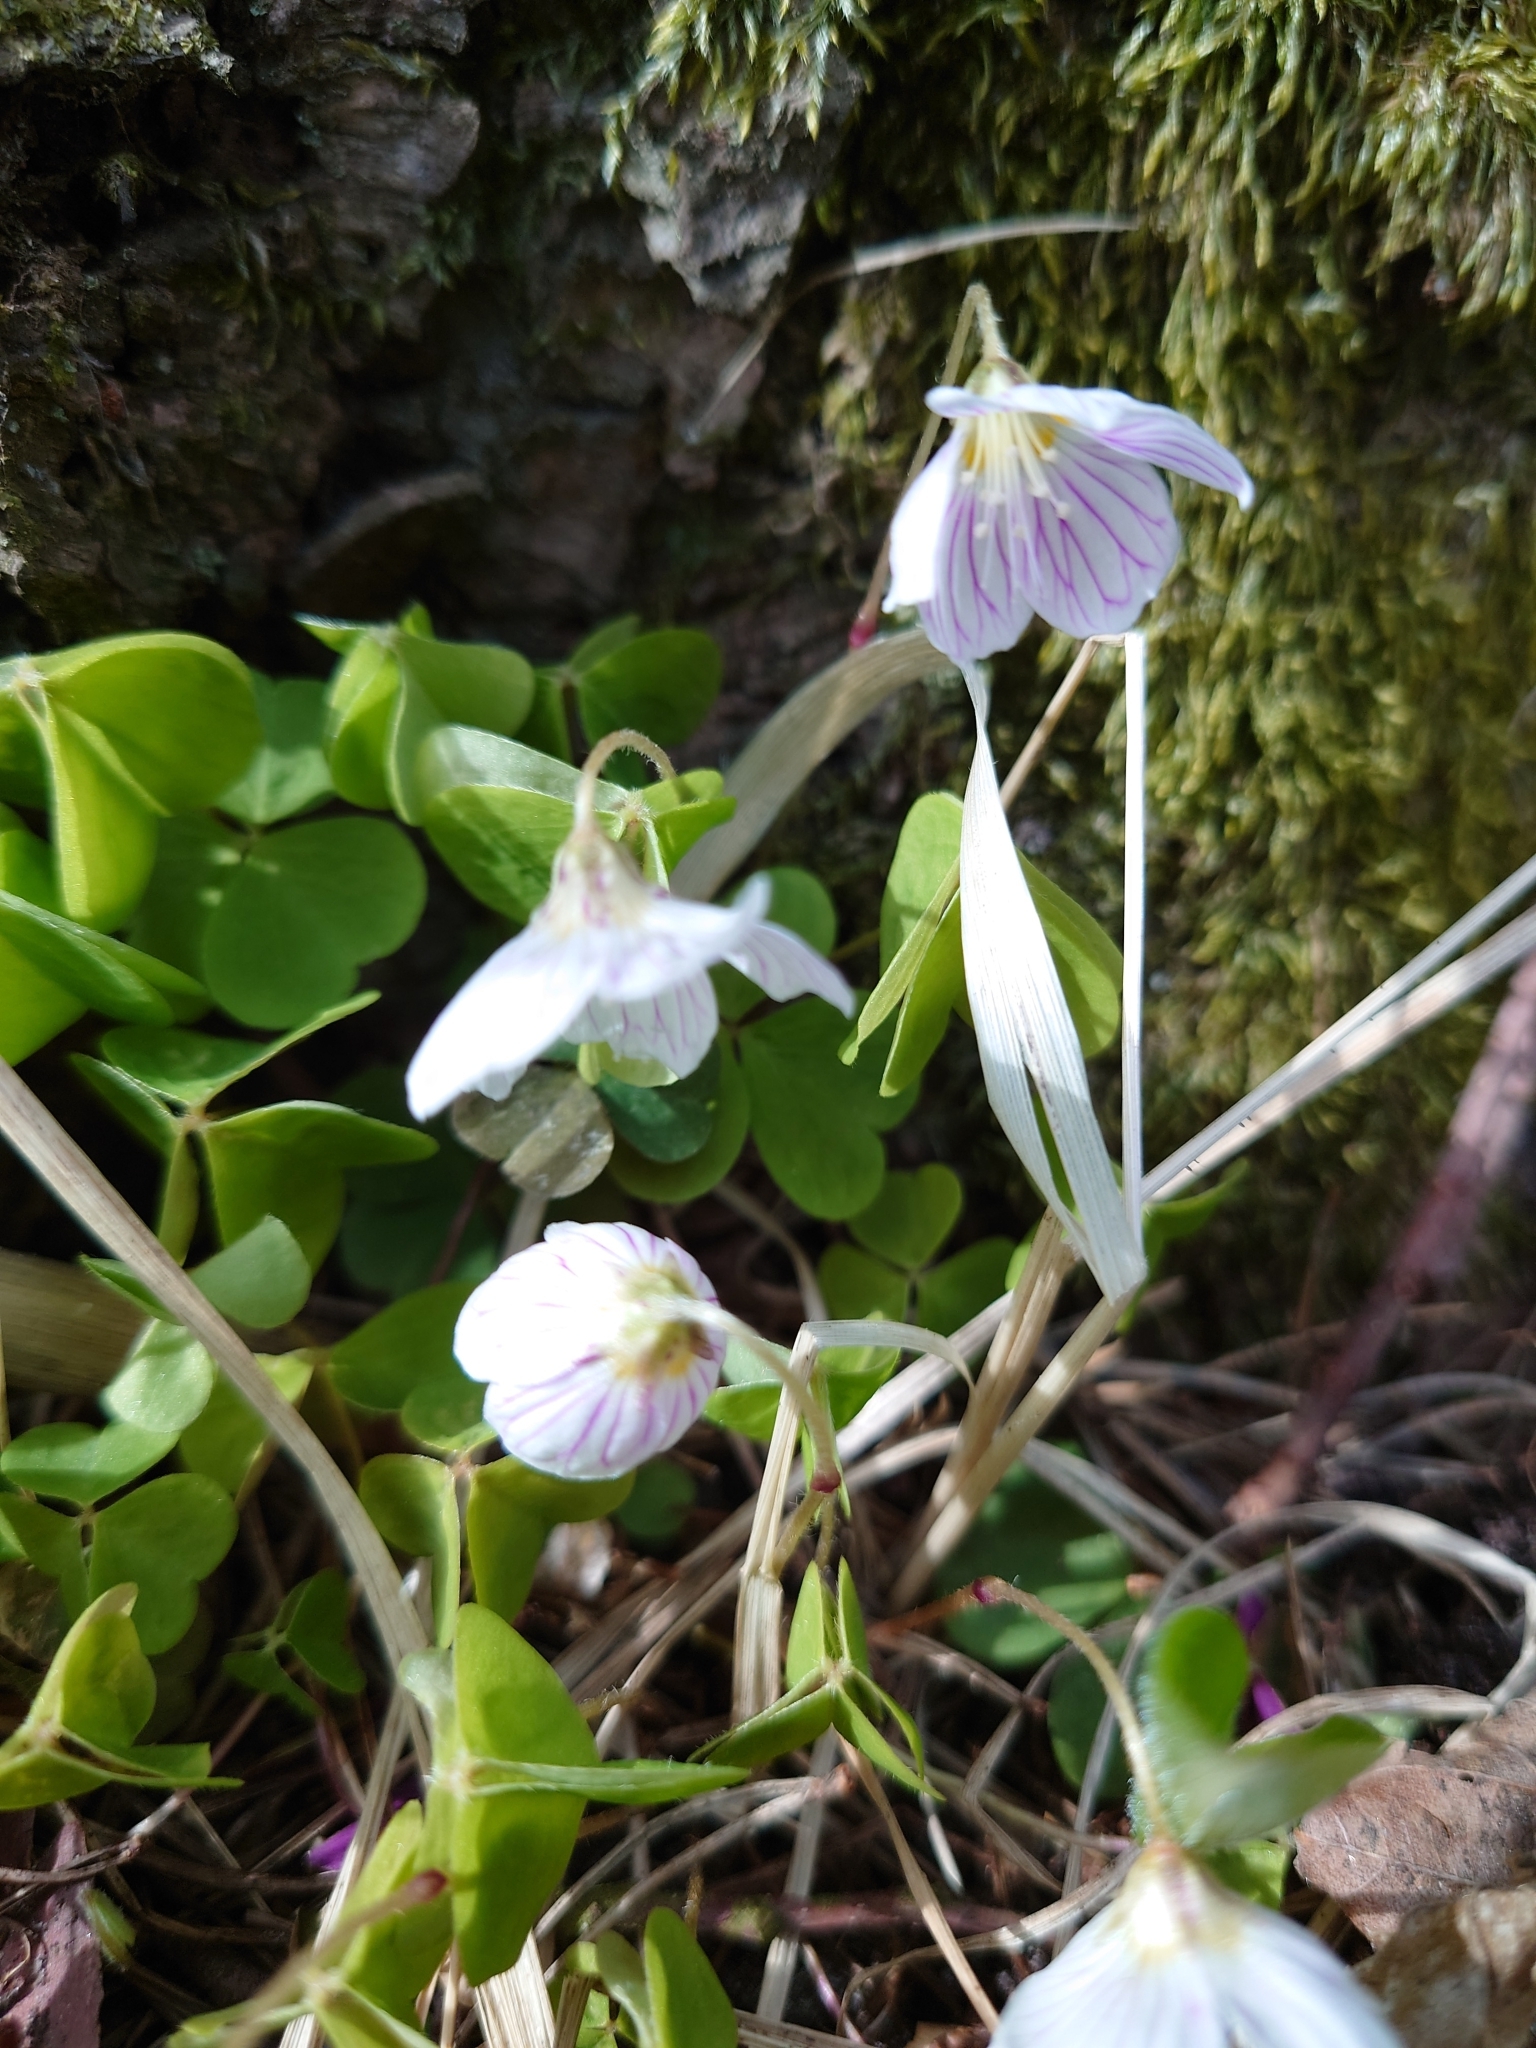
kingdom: Plantae
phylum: Tracheophyta
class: Magnoliopsida
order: Oxalidales
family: Oxalidaceae
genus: Oxalis
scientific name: Oxalis acetosella
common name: Wood-sorrel
